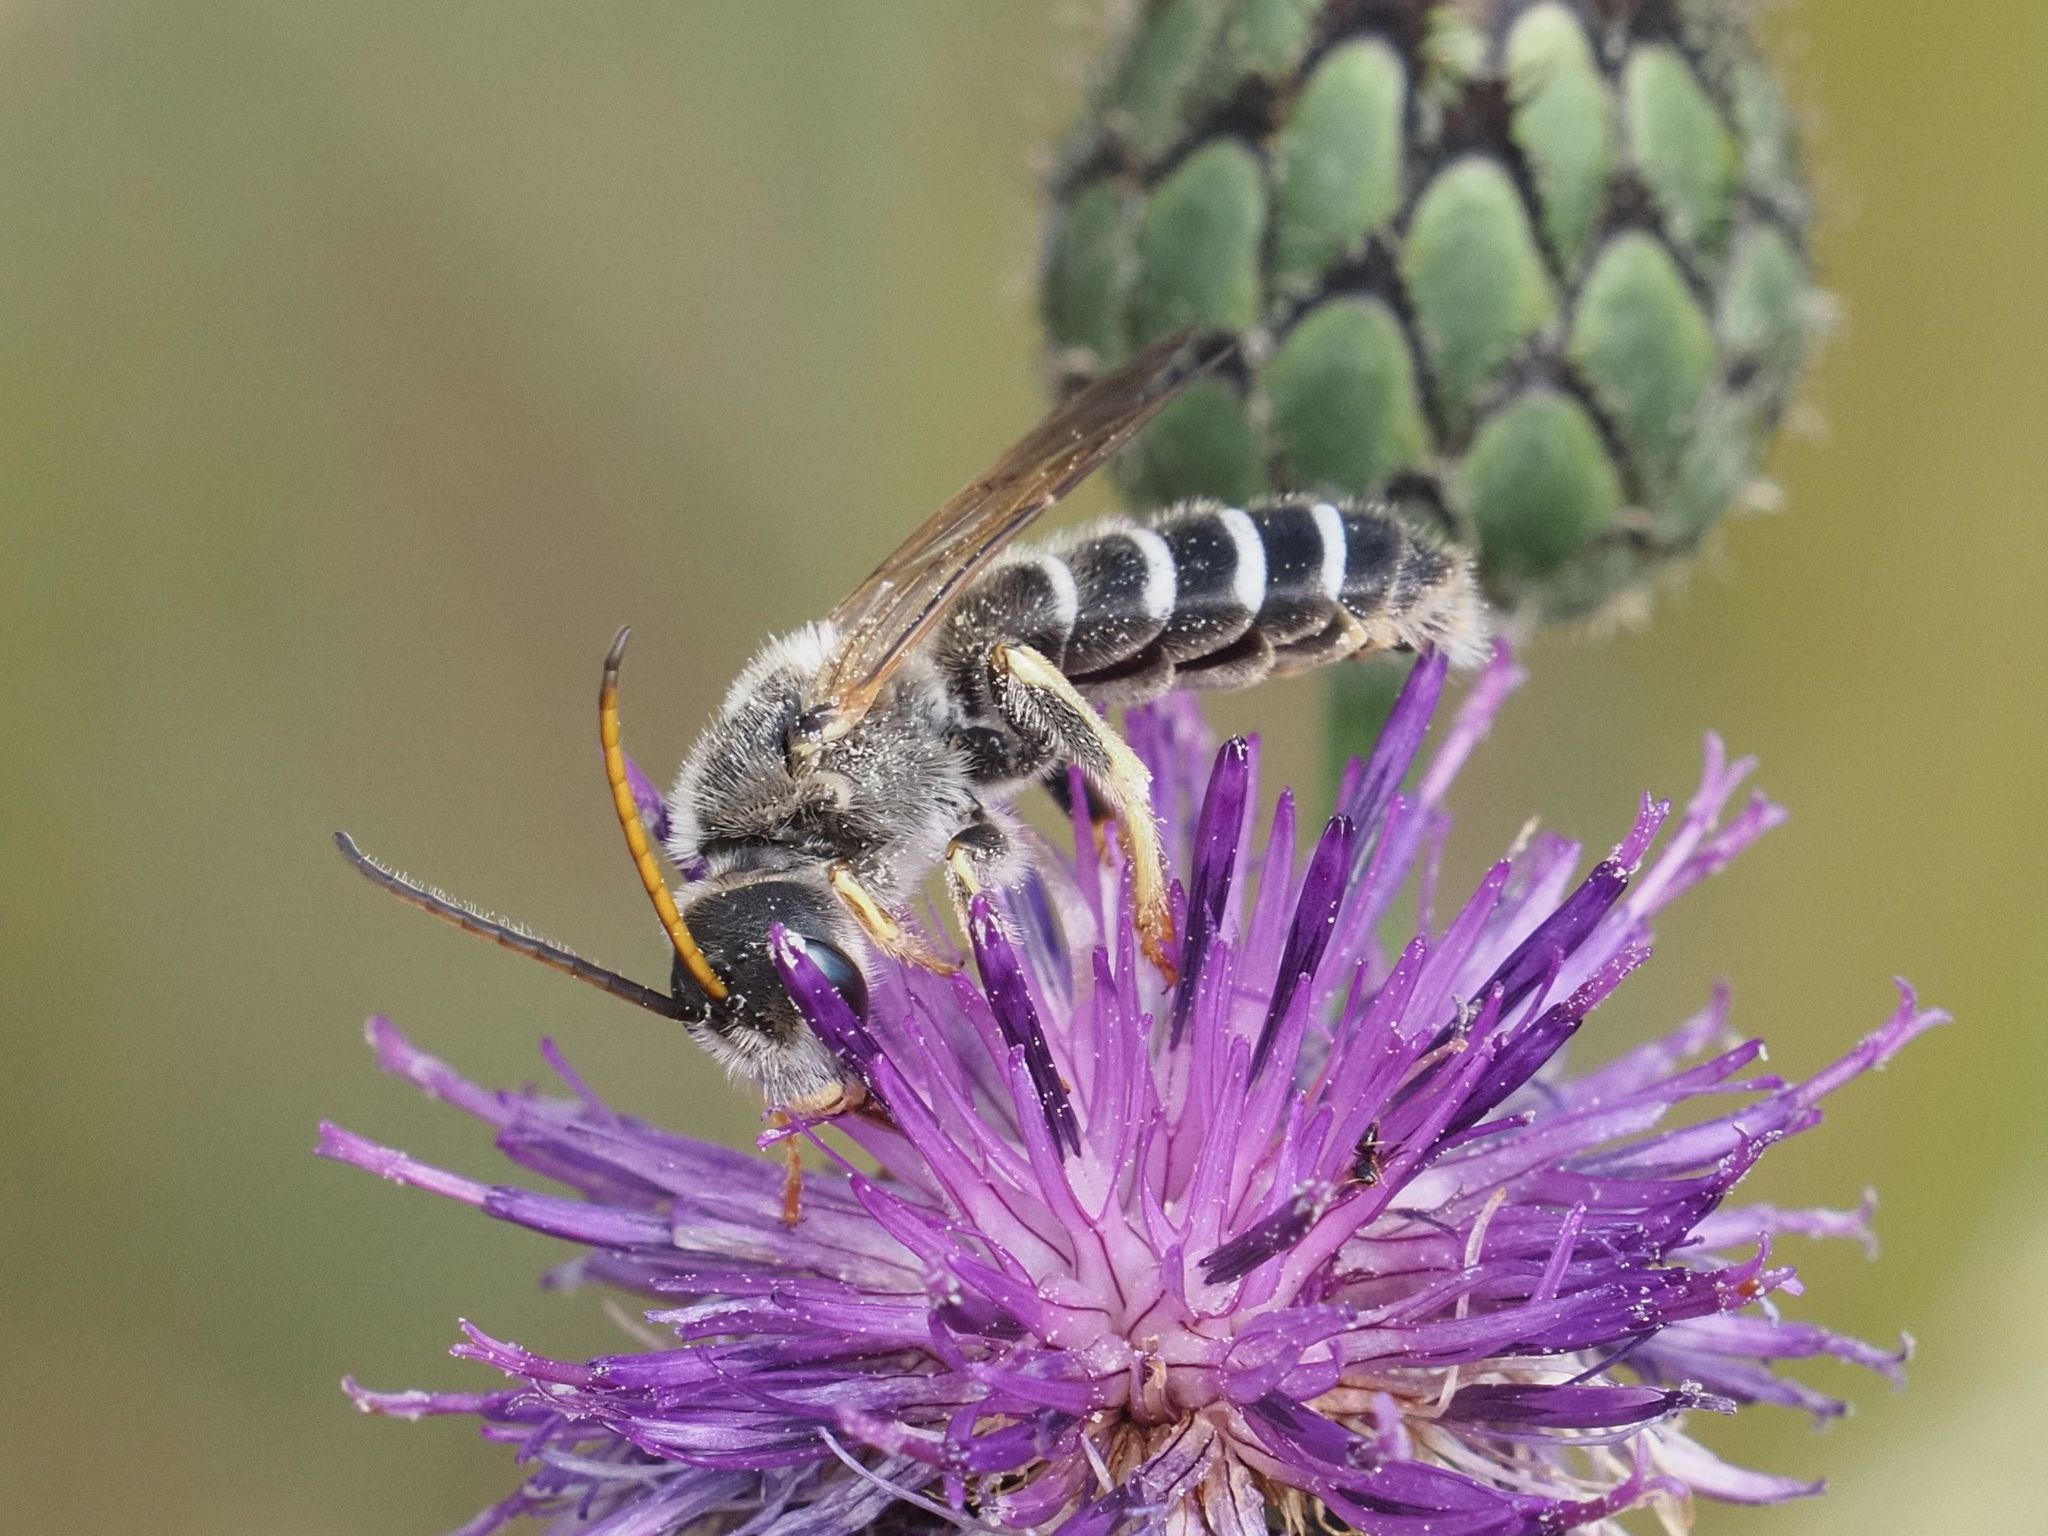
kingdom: Animalia
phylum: Arthropoda
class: Insecta
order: Hymenoptera
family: Halictidae
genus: Halictus
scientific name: Halictus quadricinctus
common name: Giant furrow bee
